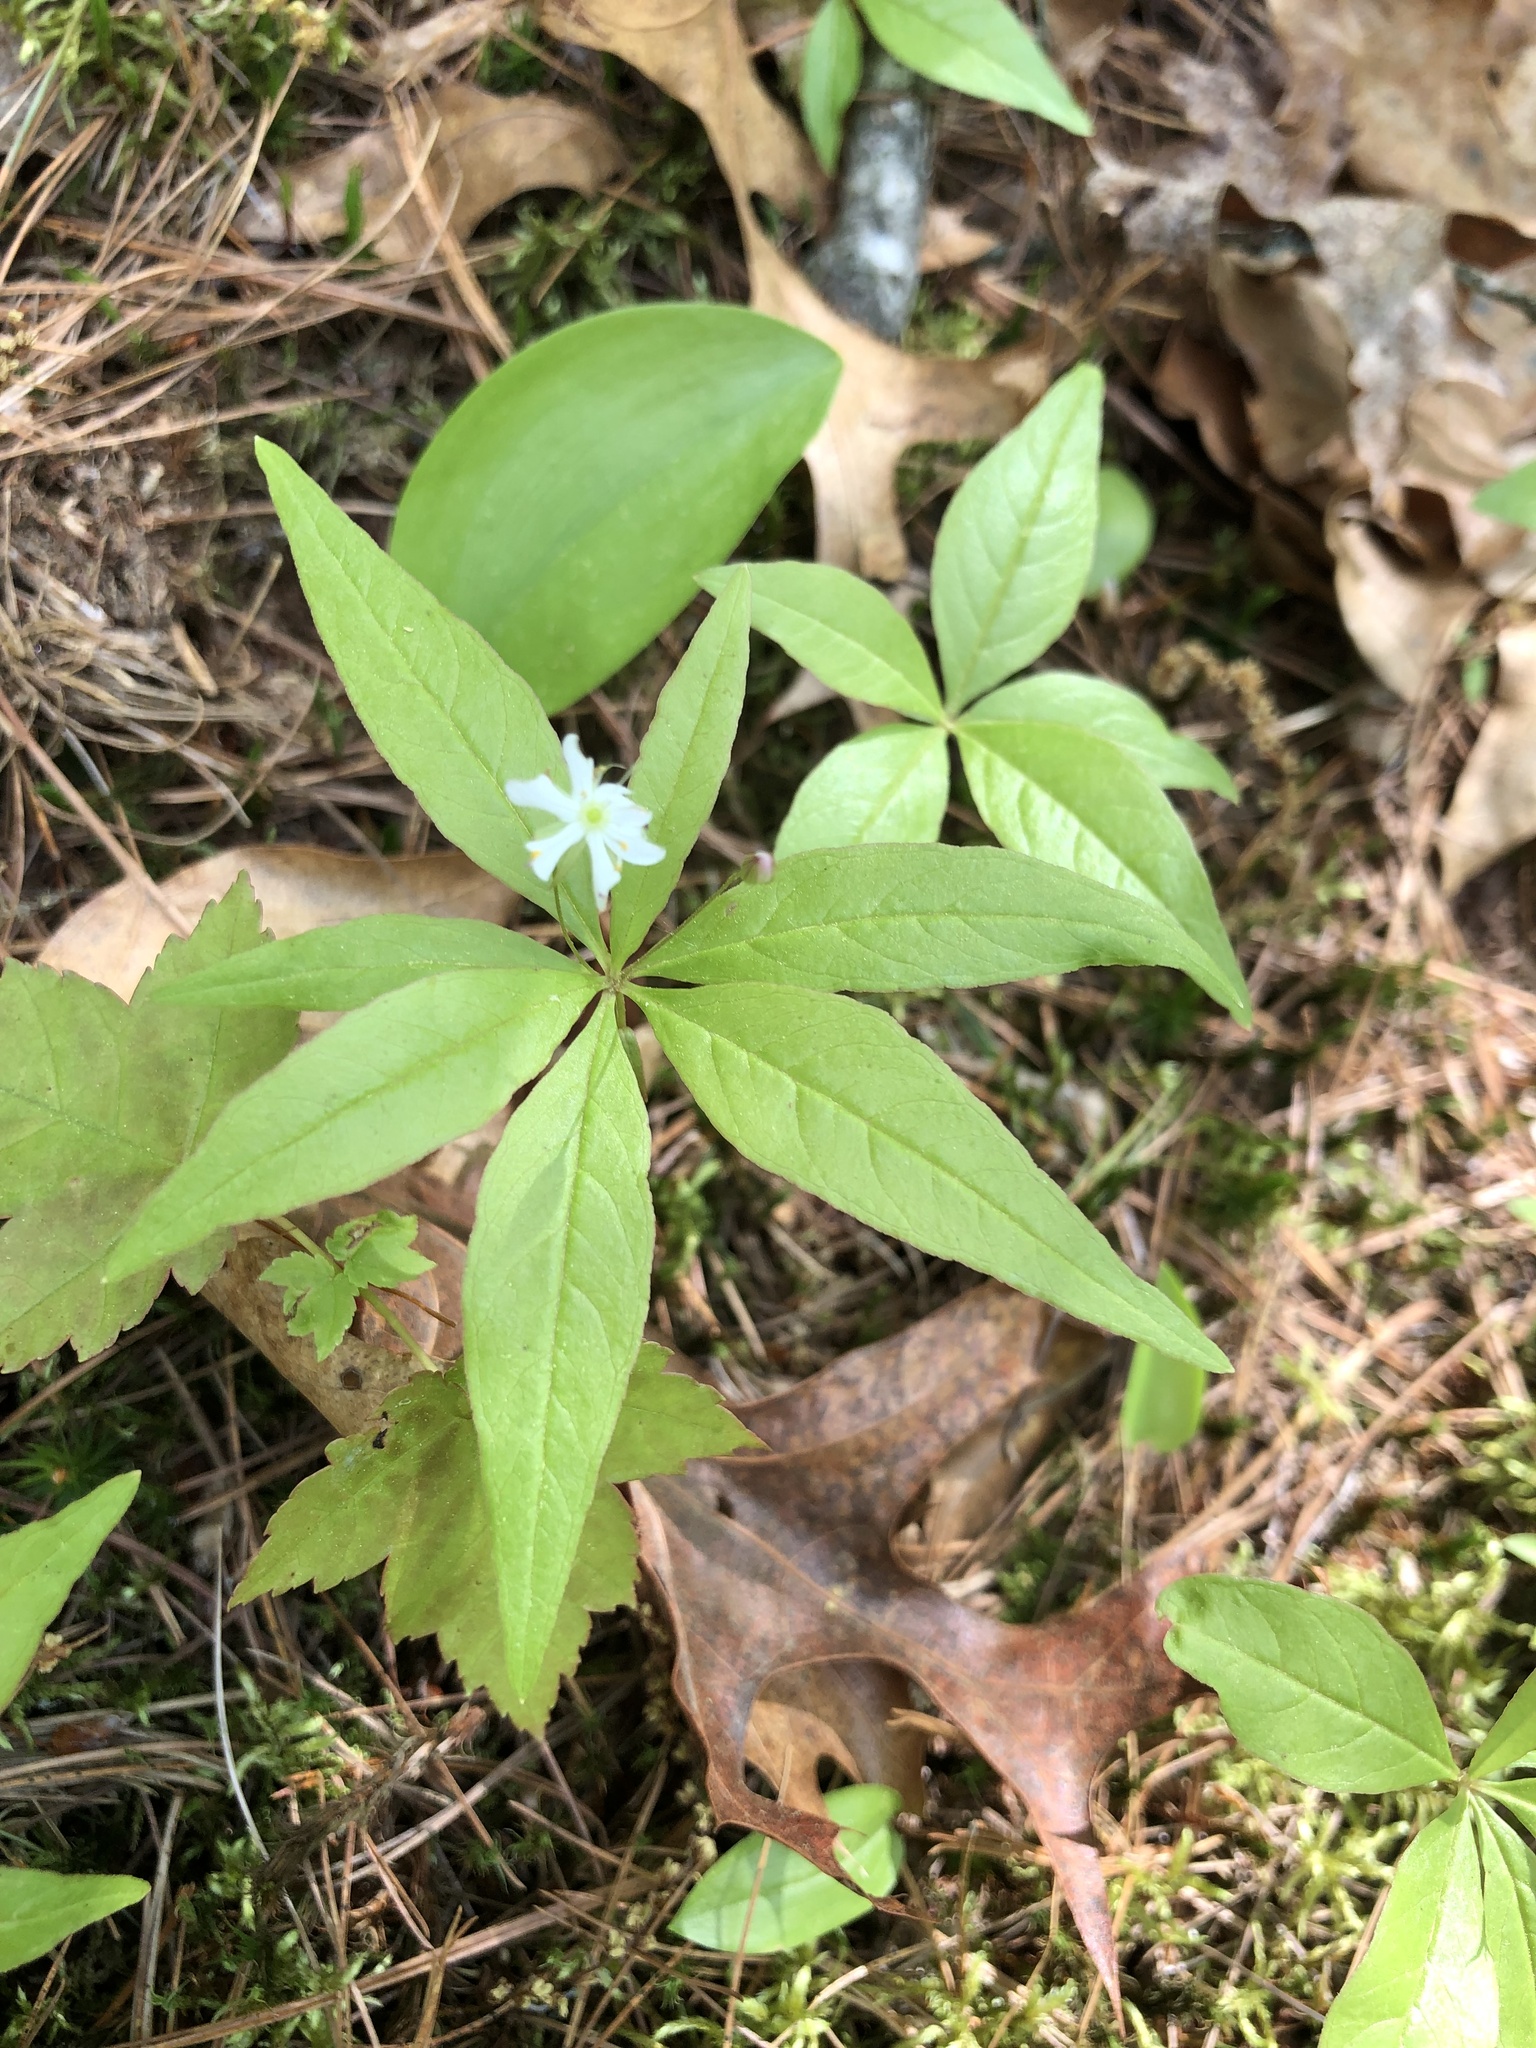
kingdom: Plantae
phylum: Tracheophyta
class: Magnoliopsida
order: Ericales
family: Primulaceae
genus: Lysimachia
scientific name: Lysimachia borealis
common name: American starflower
